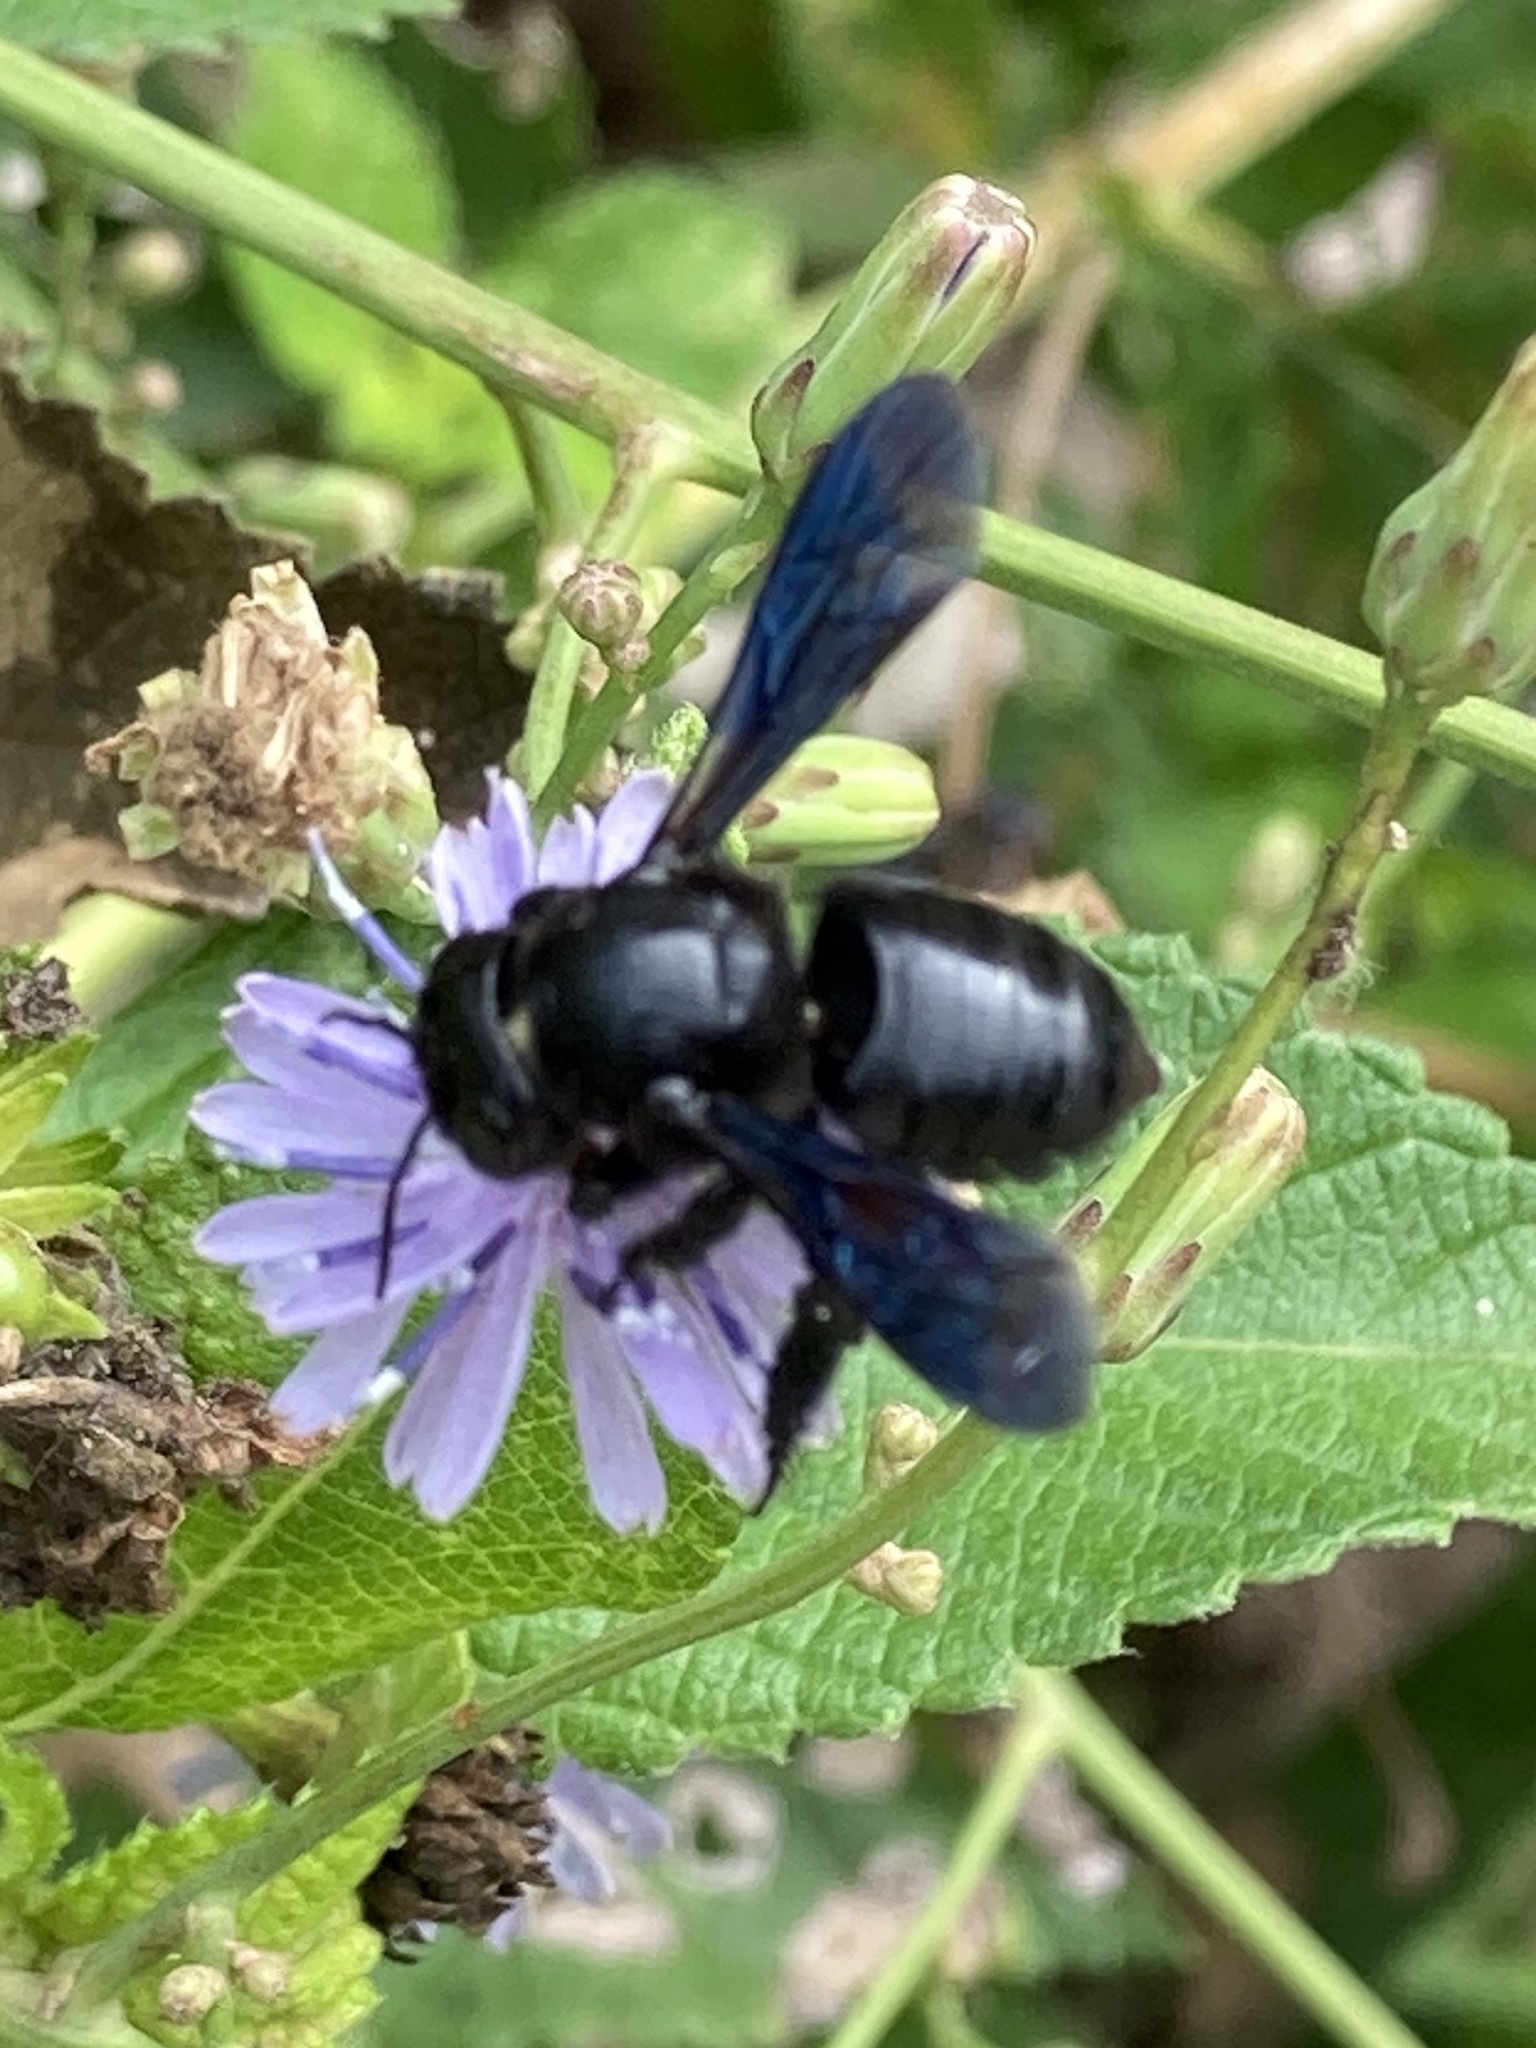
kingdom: Animalia
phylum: Arthropoda
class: Insecta
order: Hymenoptera
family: Megachilidae
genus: Megachile
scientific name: Megachile xylocopoides
